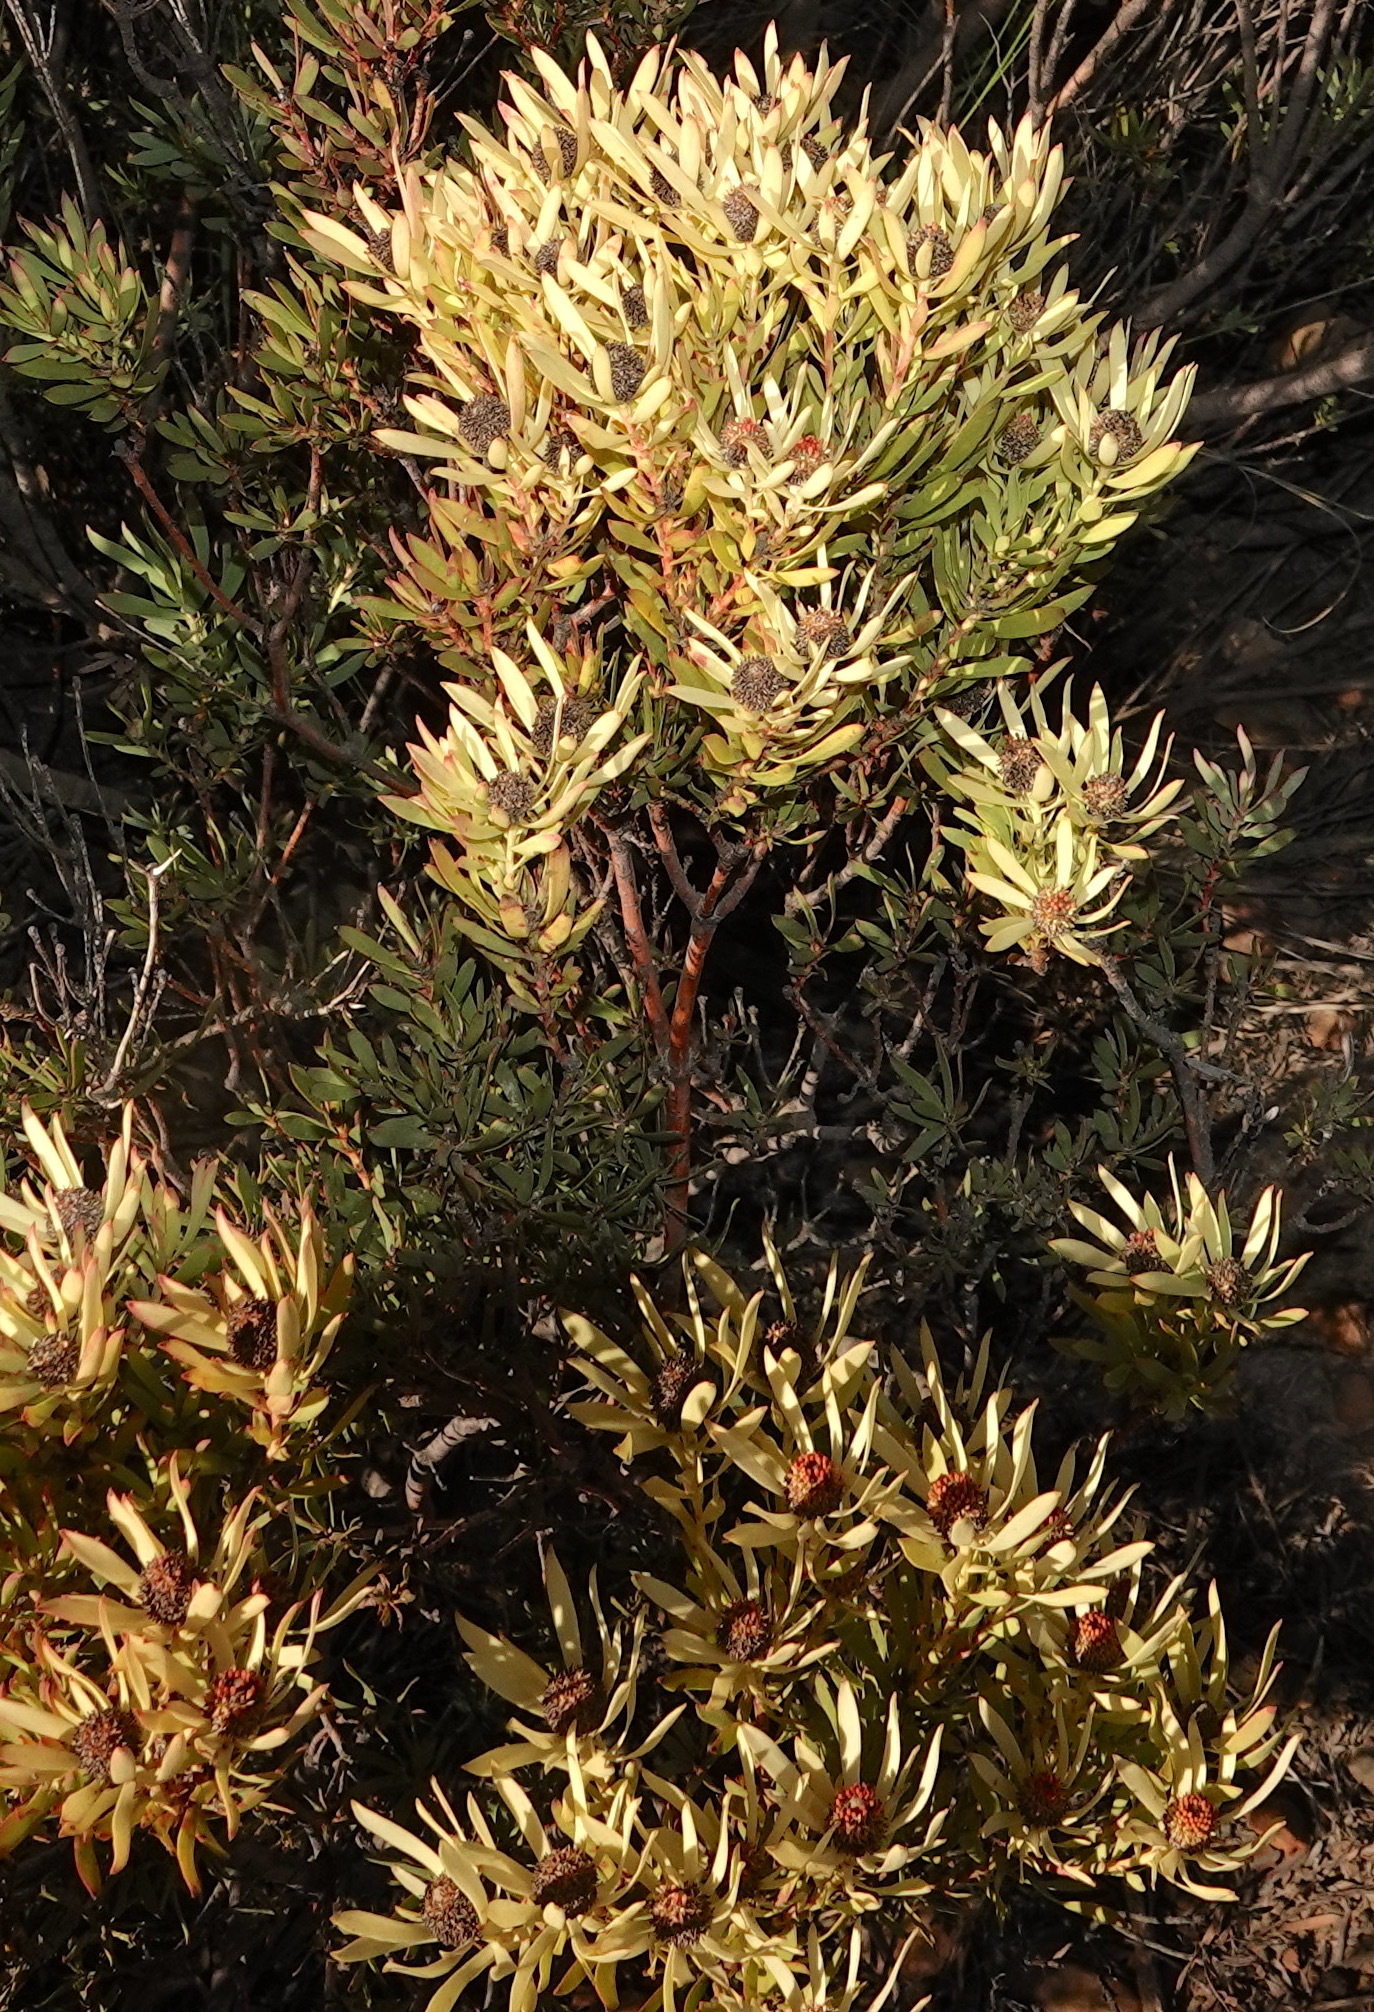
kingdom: Plantae
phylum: Tracheophyta
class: Magnoliopsida
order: Proteales
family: Proteaceae
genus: Leucadendron
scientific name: Leucadendron salignum
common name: Common sunshine conebush
